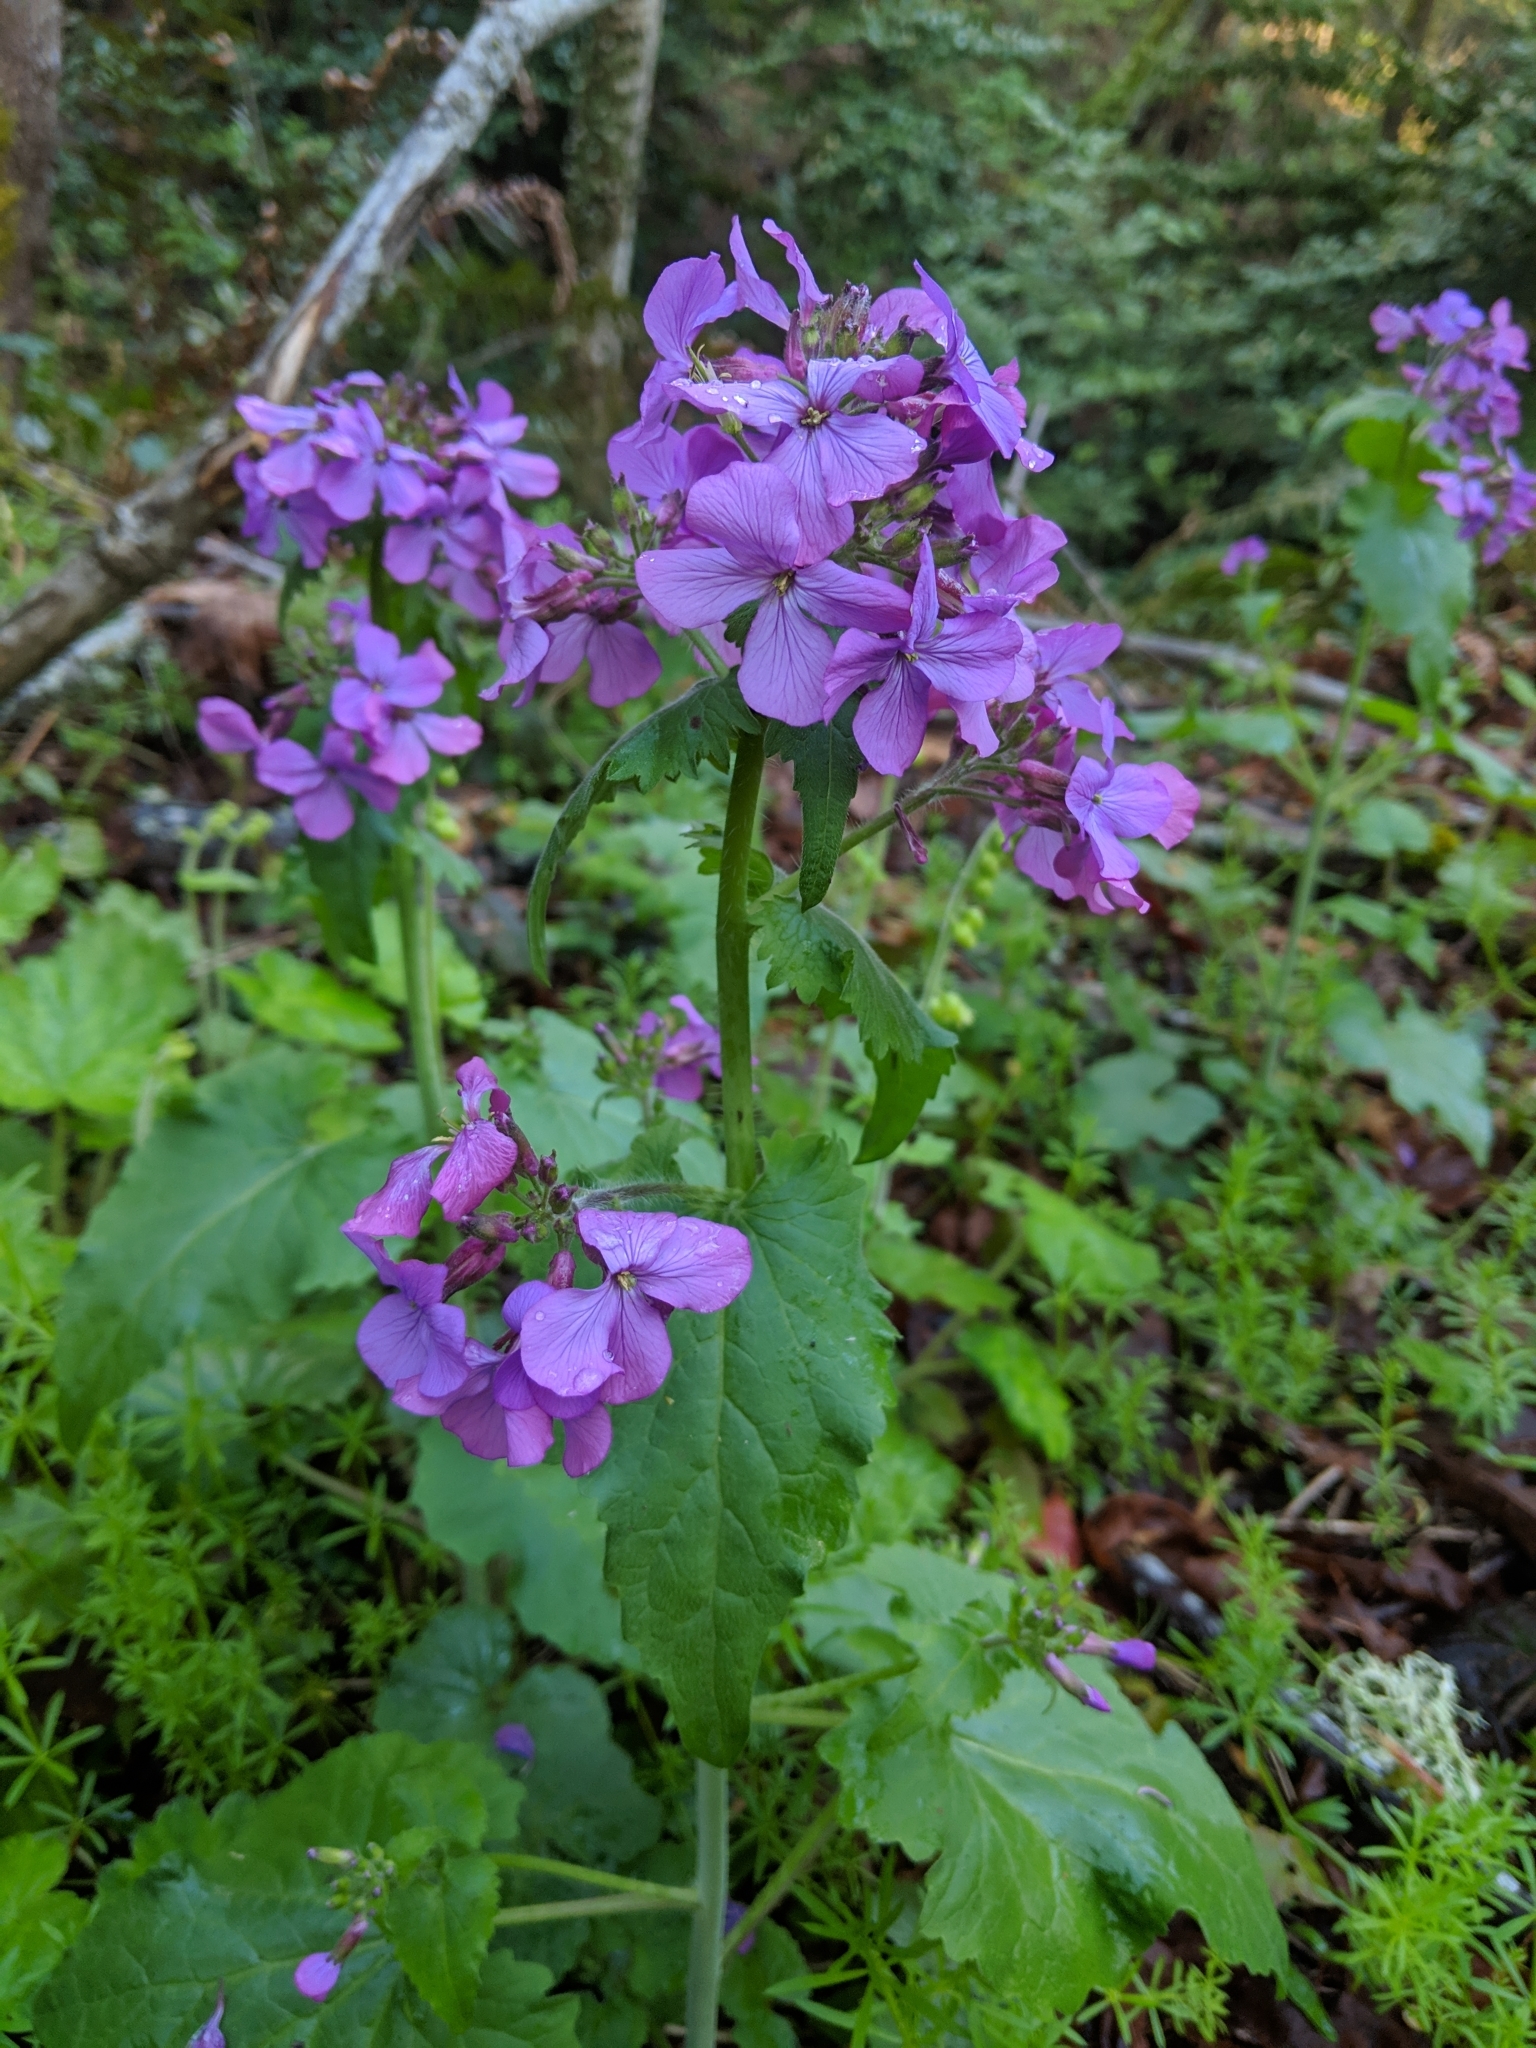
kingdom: Plantae
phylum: Tracheophyta
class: Magnoliopsida
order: Brassicales
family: Brassicaceae
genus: Lunaria
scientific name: Lunaria annua
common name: Honesty
